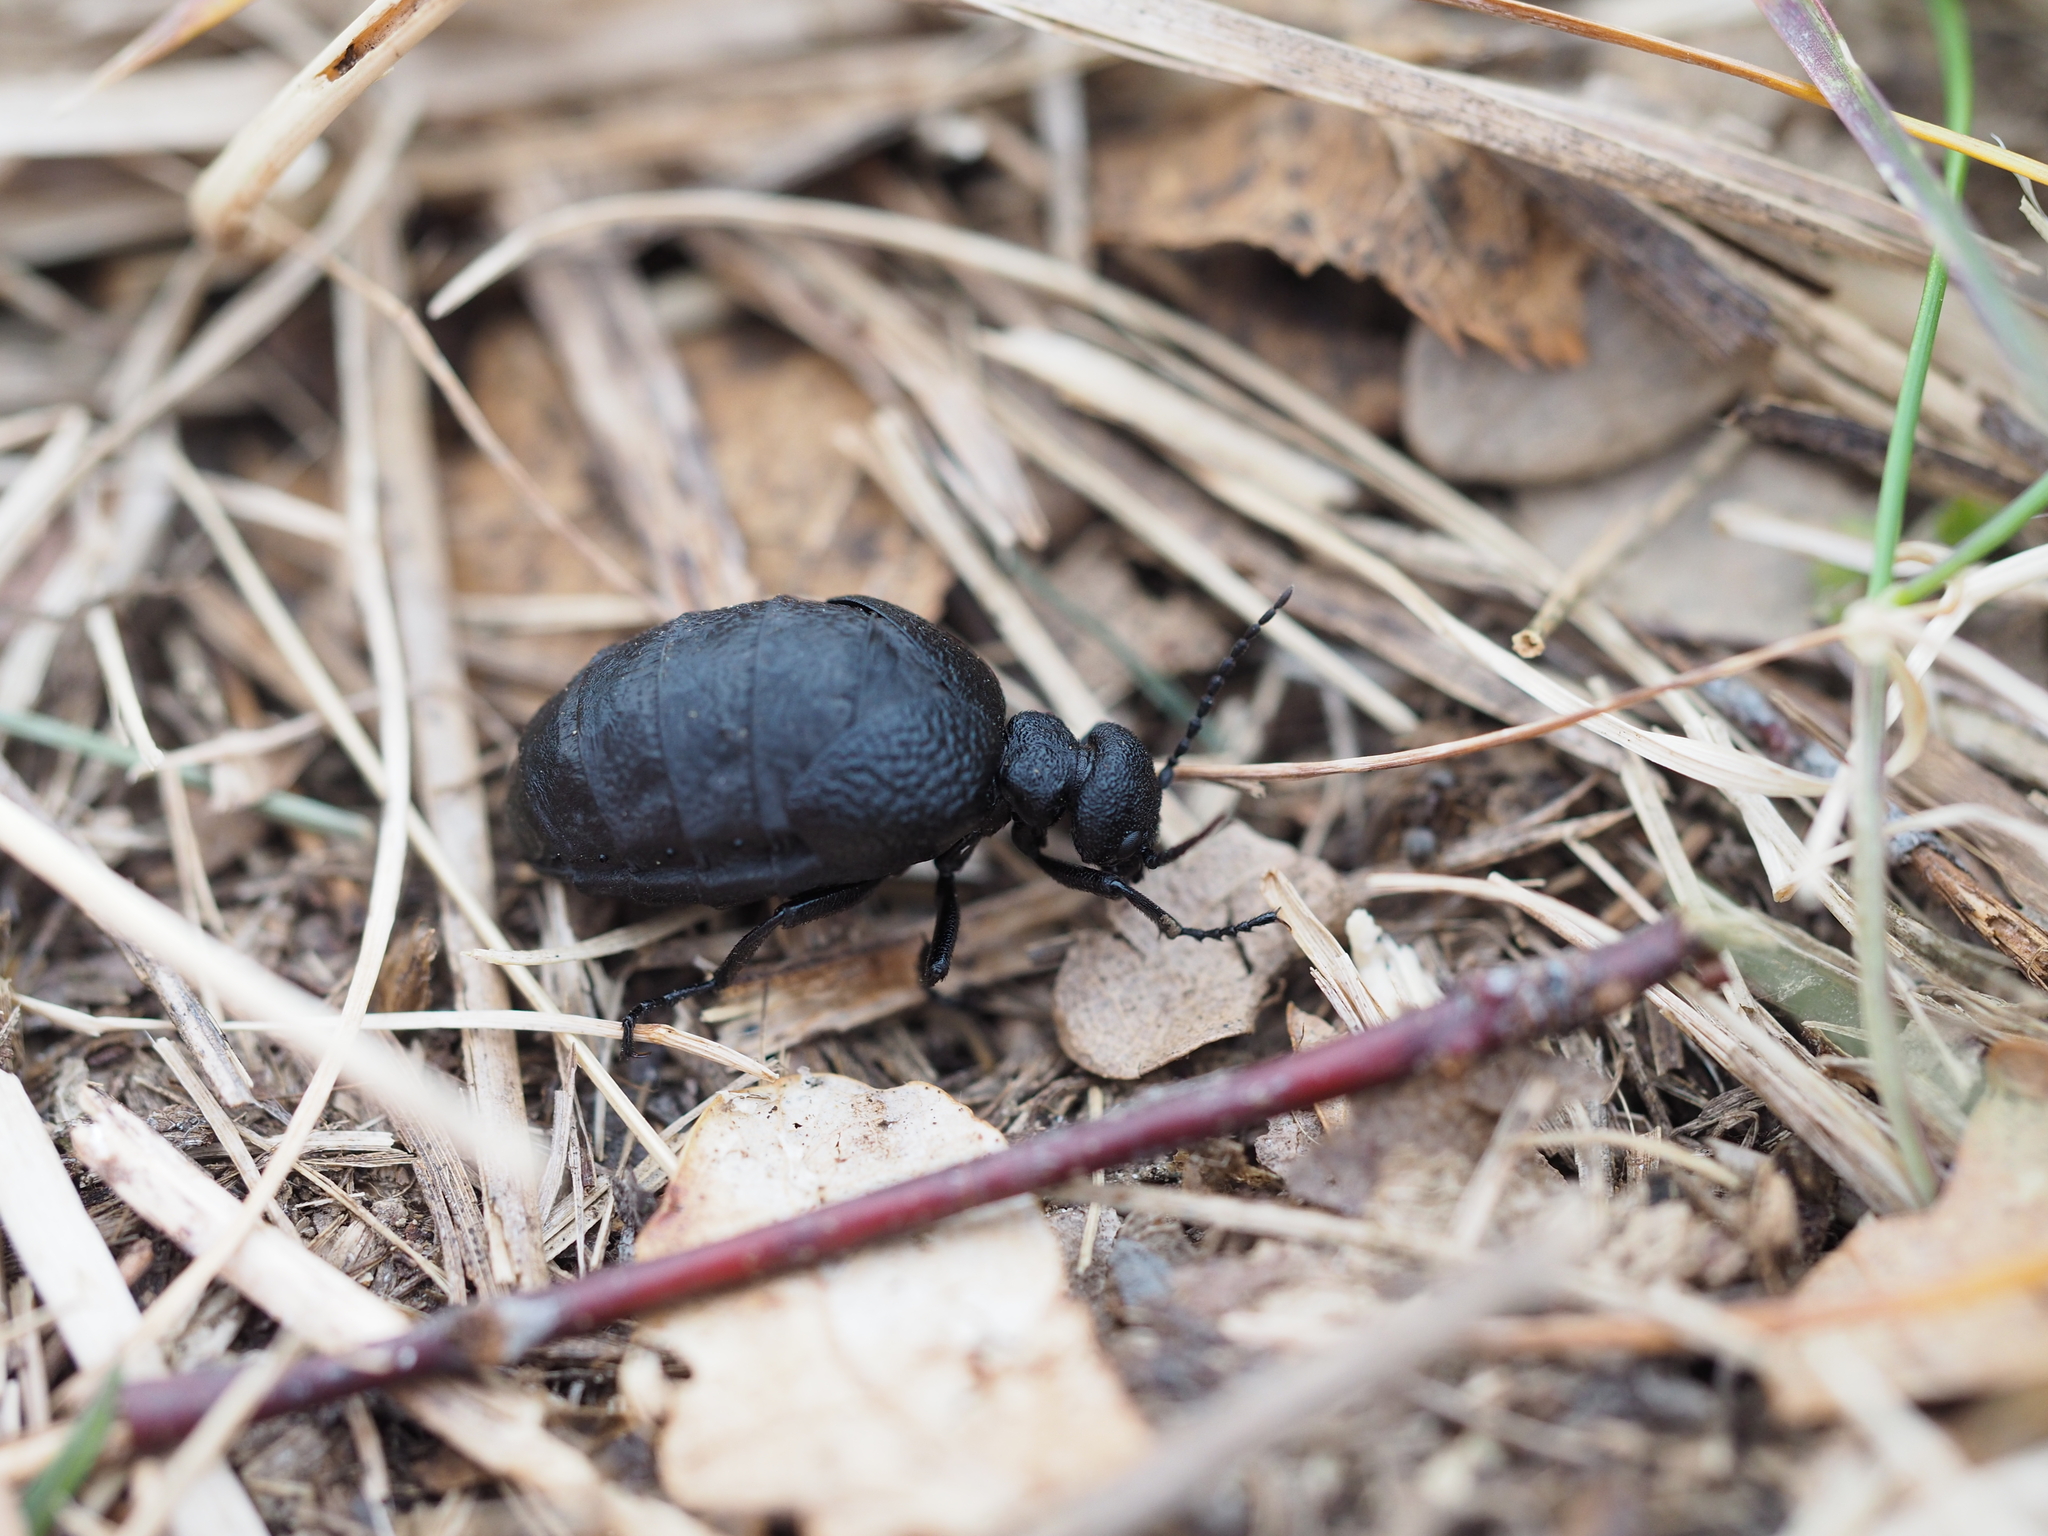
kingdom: Animalia
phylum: Arthropoda
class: Insecta
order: Coleoptera
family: Meloidae
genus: Meloe
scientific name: Meloe rugosus
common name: Rugged oil-beetle
